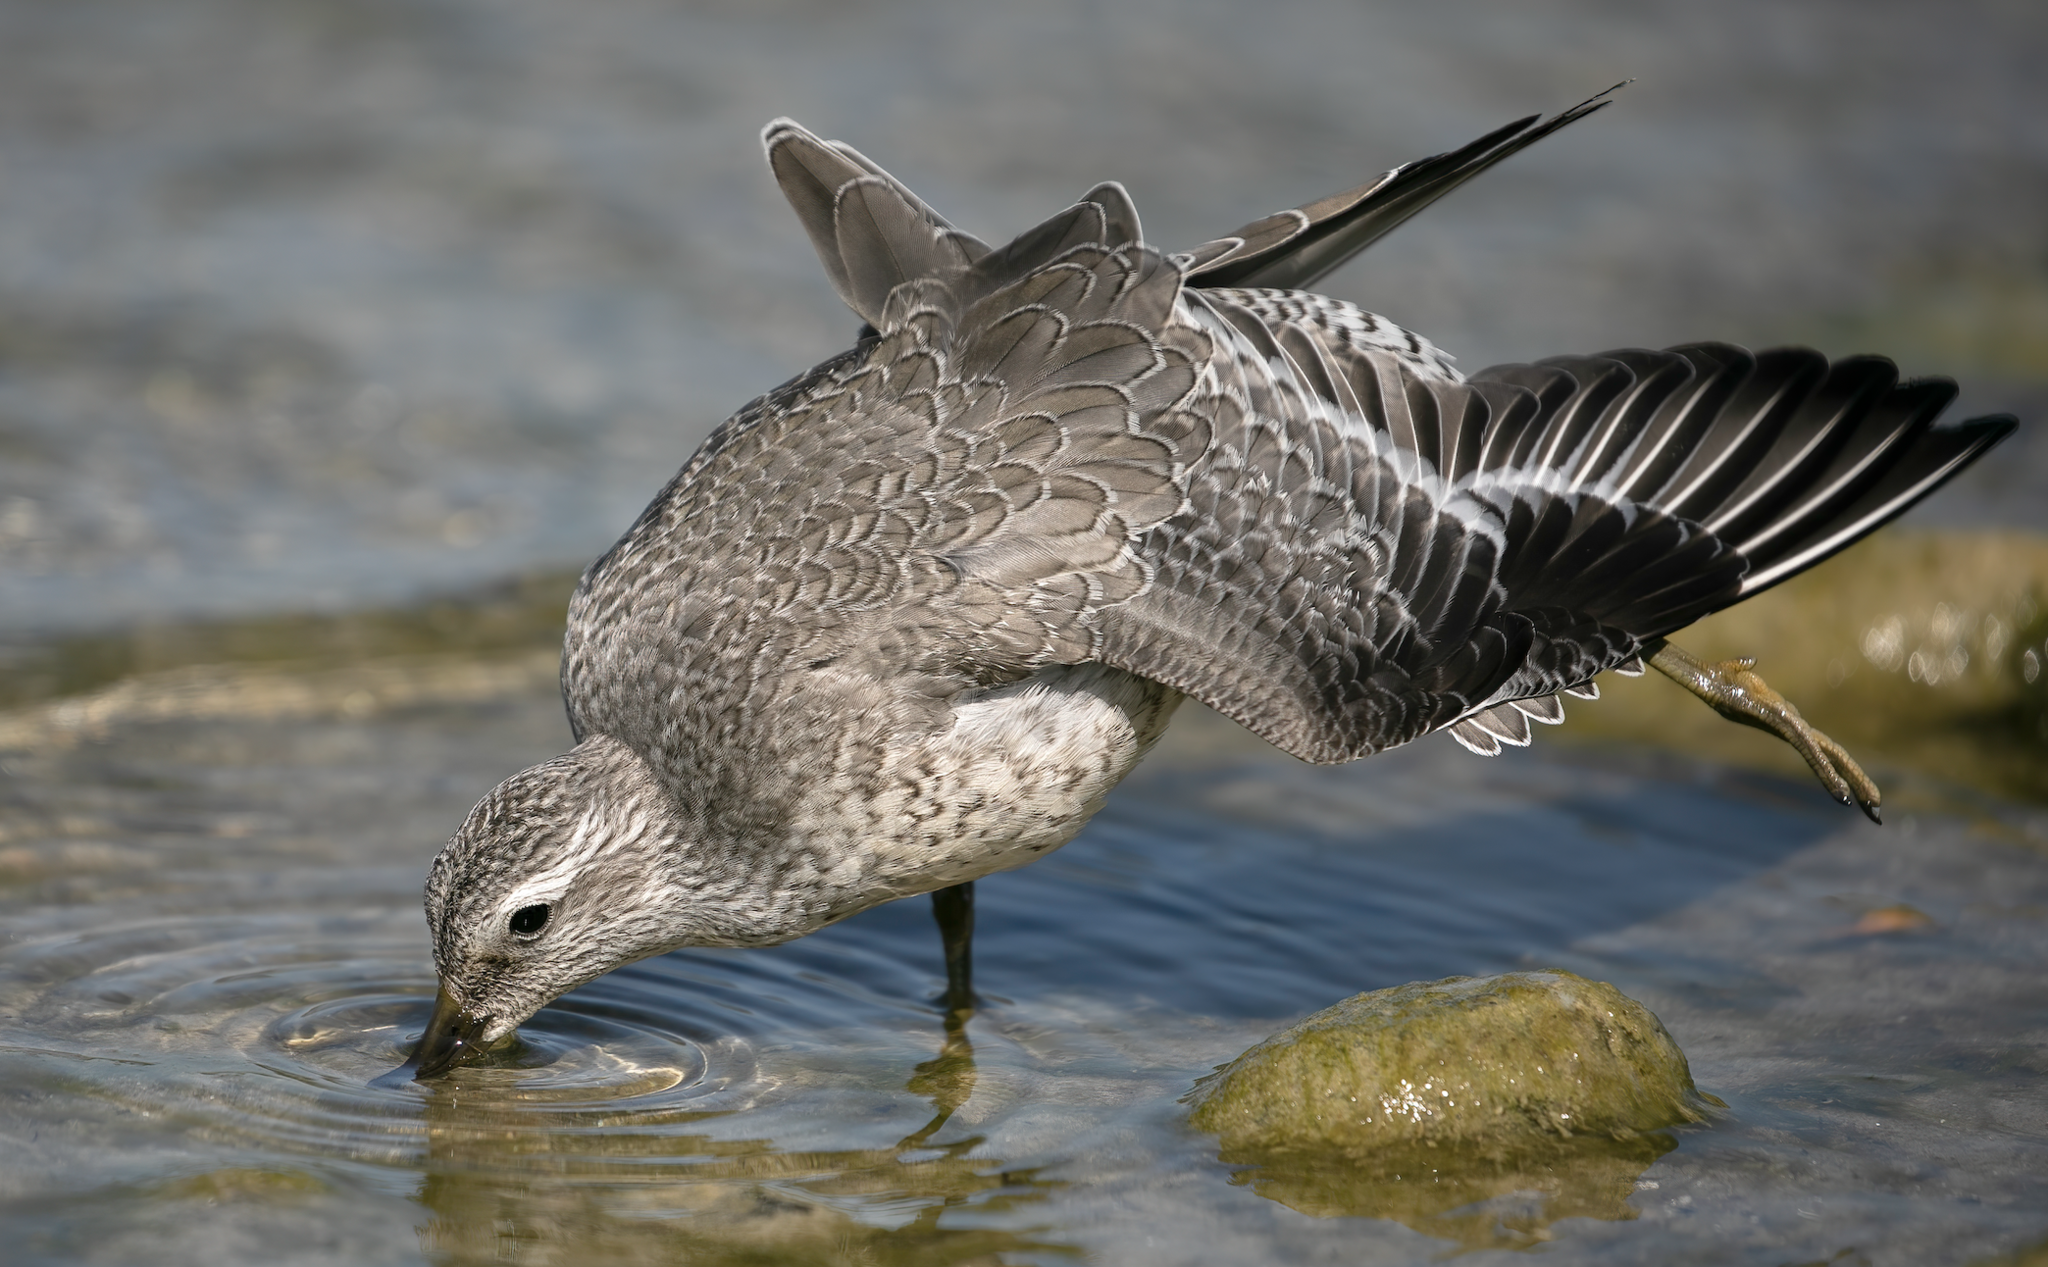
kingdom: Animalia
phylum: Chordata
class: Aves
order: Charadriiformes
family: Scolopacidae
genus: Calidris
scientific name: Calidris canutus
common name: Red knot
